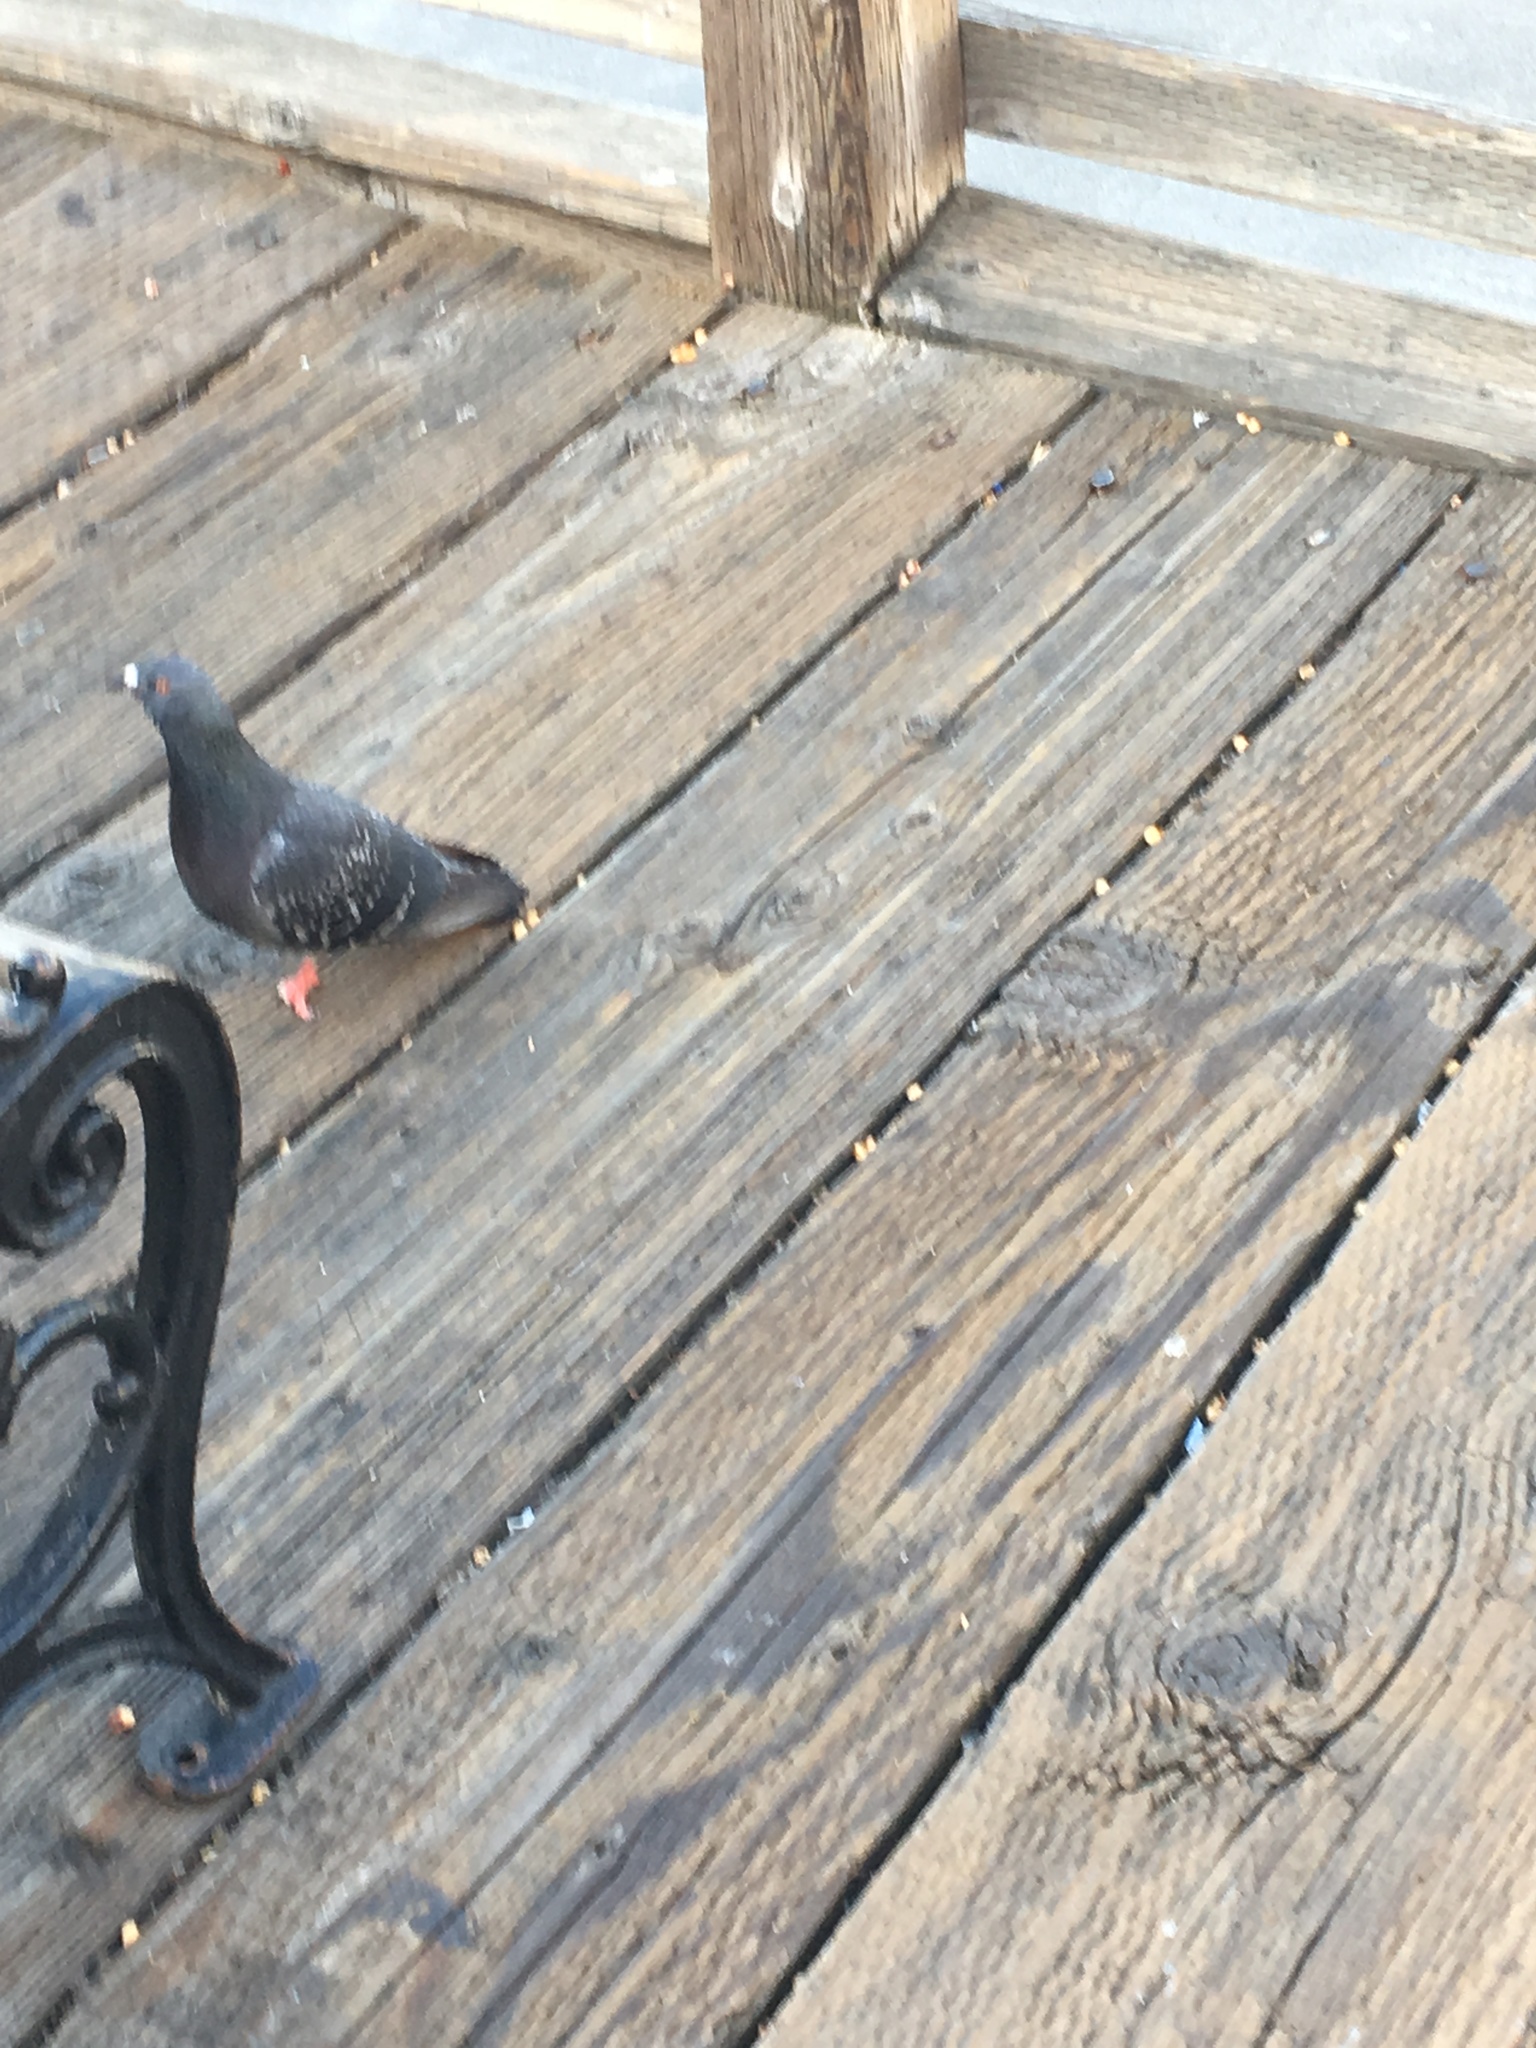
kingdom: Animalia
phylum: Chordata
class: Aves
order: Columbiformes
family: Columbidae
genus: Columba
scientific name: Columba livia
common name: Rock pigeon
